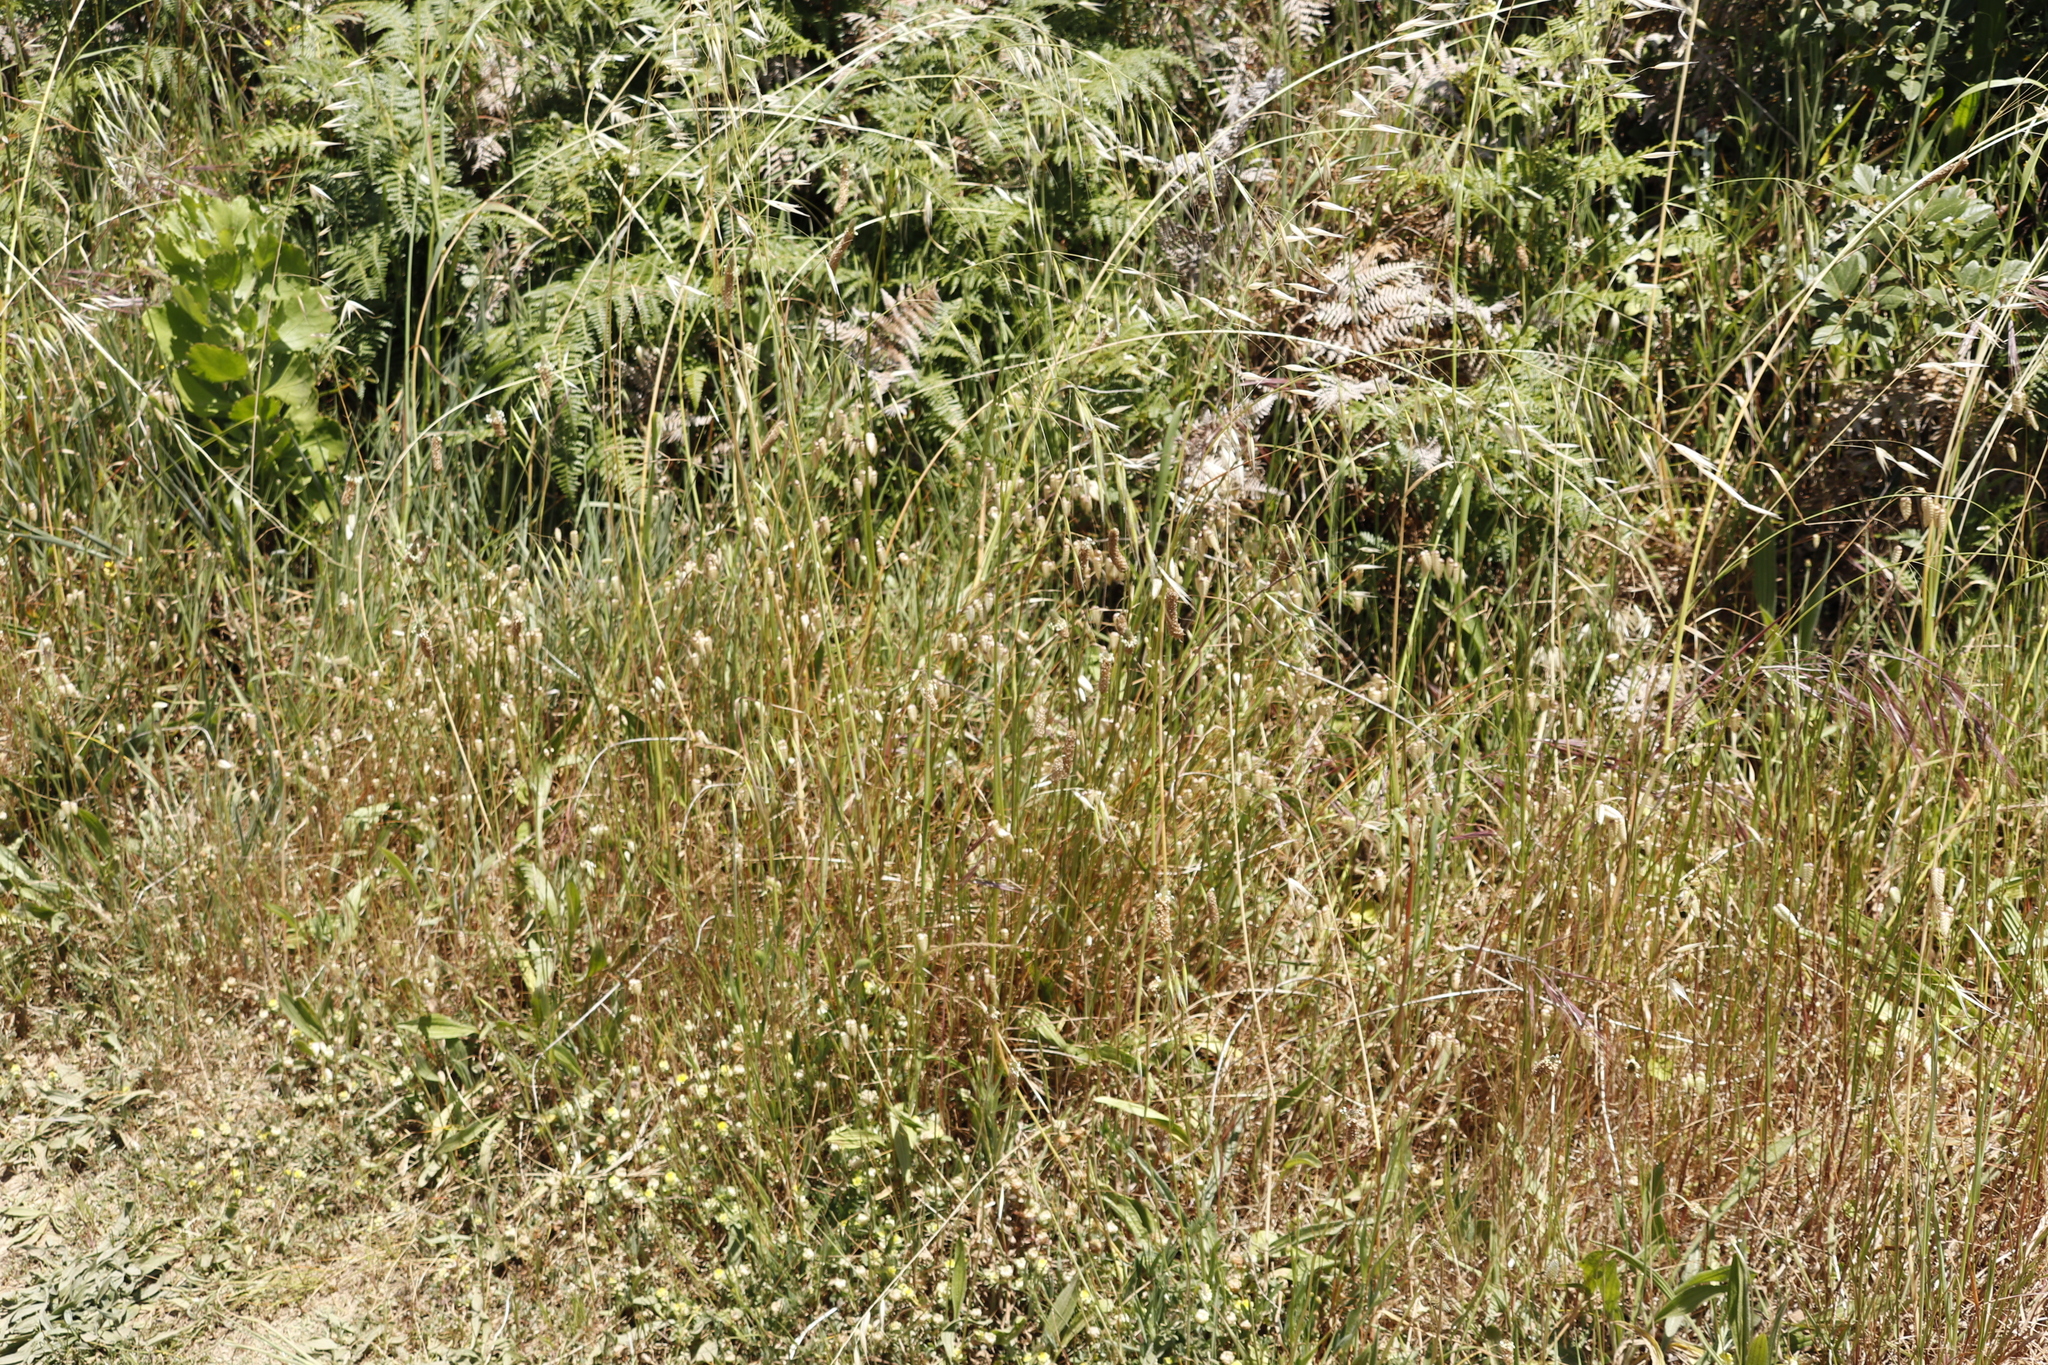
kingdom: Plantae
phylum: Tracheophyta
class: Liliopsida
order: Poales
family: Poaceae
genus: Avena
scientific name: Avena fatua
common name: Wild oat
